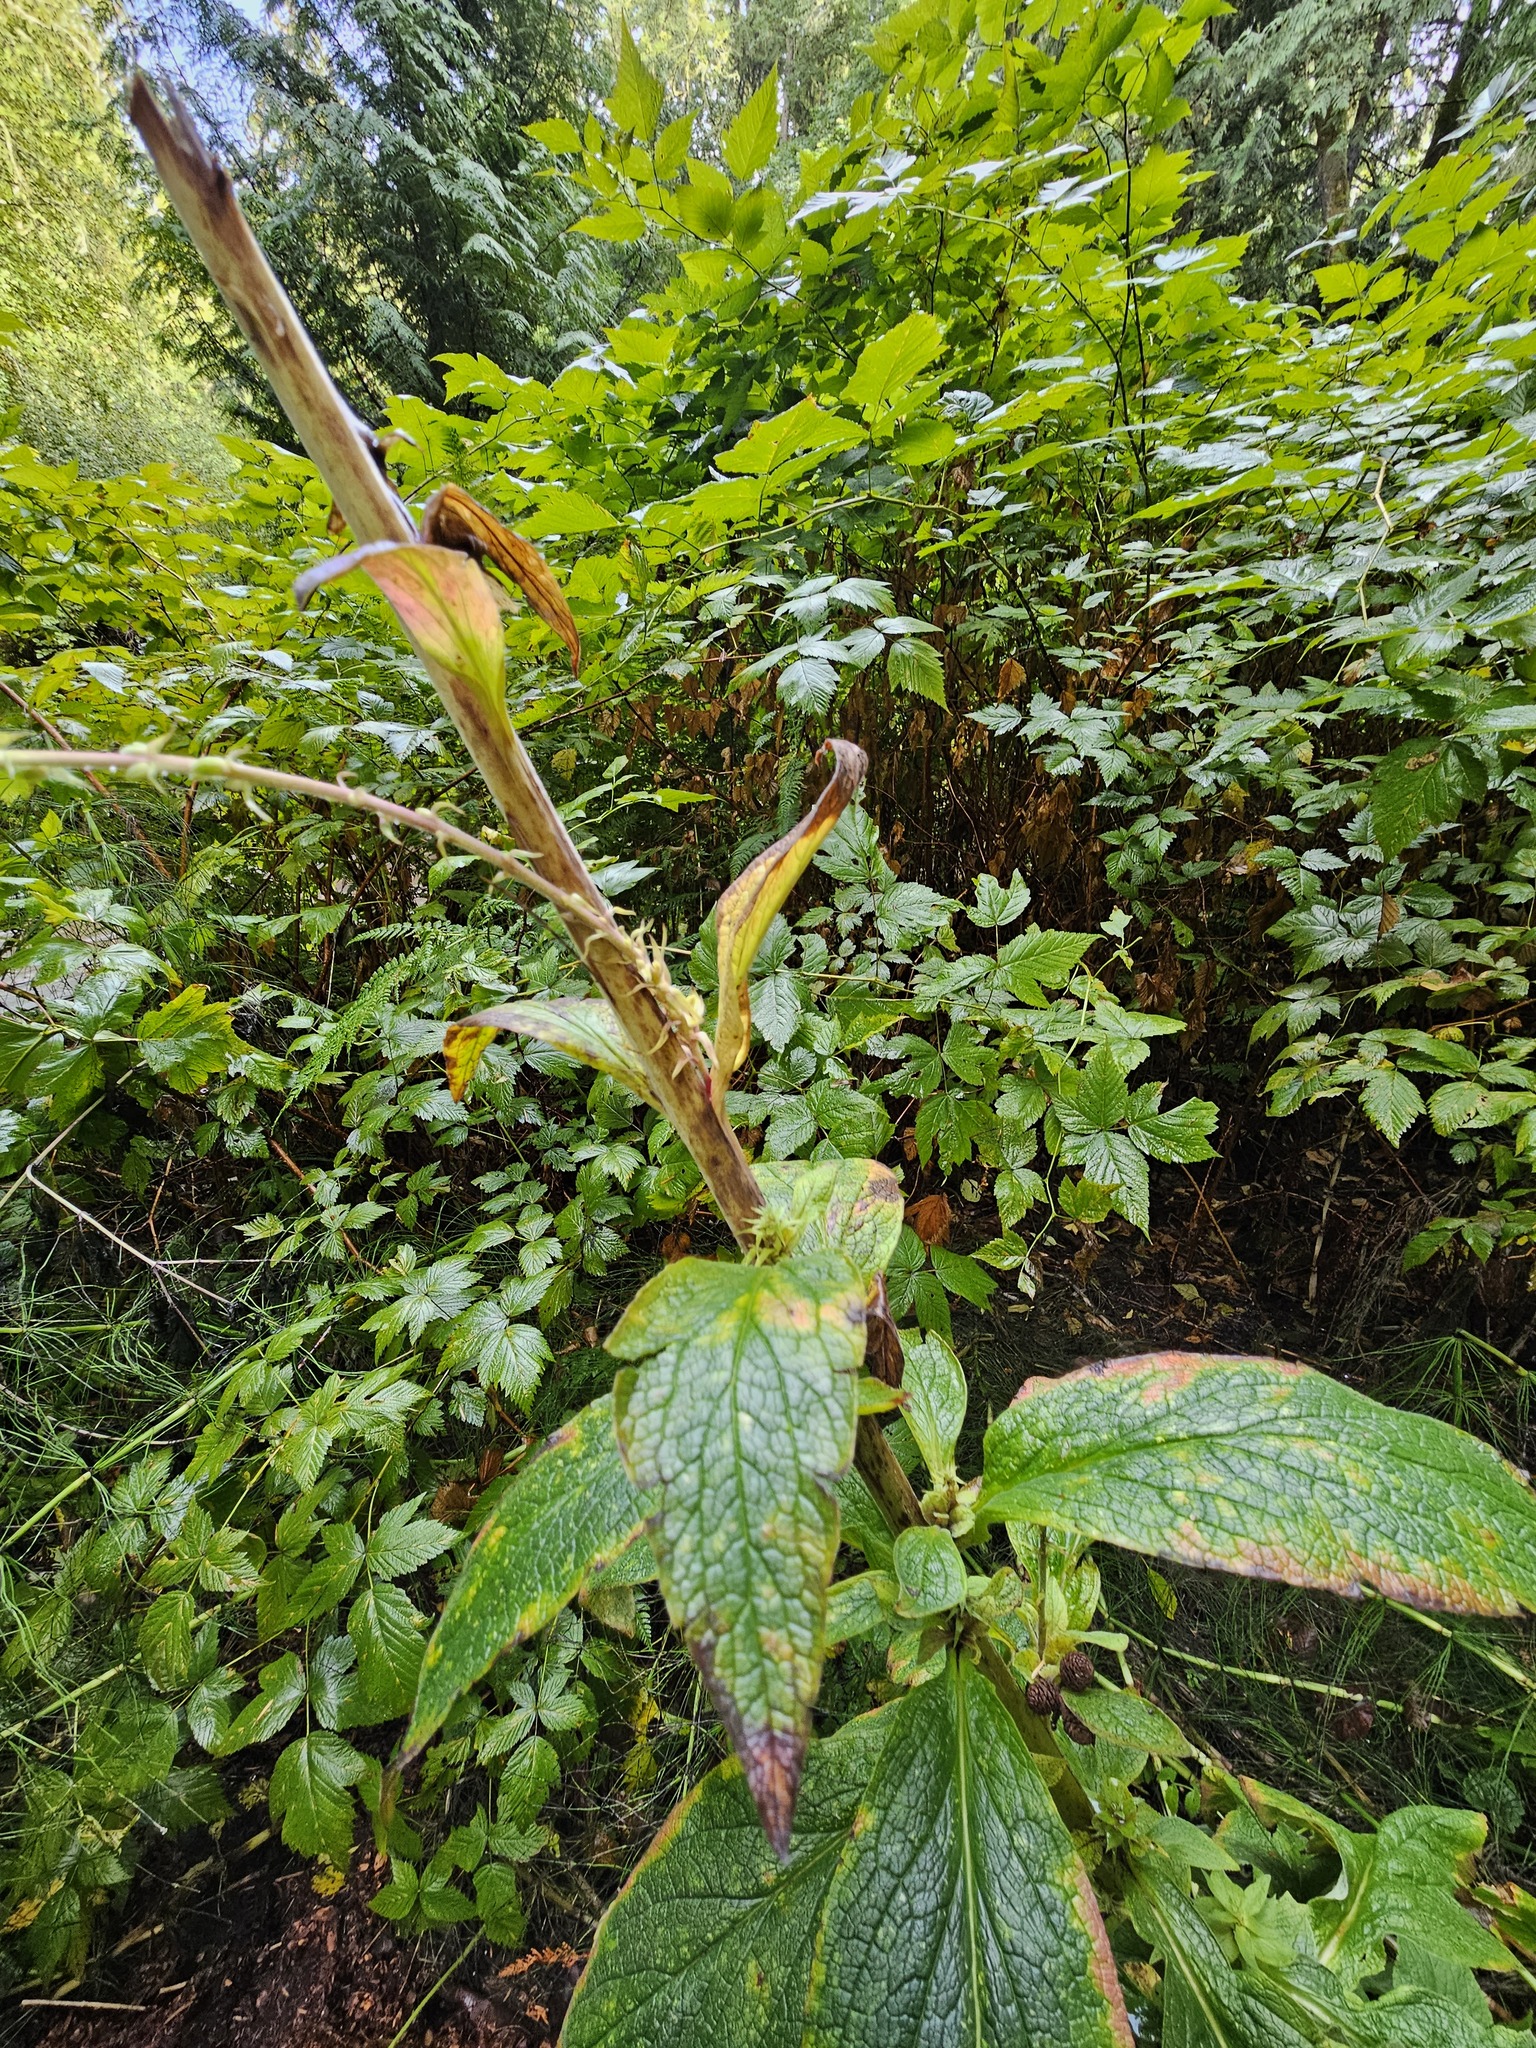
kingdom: Plantae
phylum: Tracheophyta
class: Magnoliopsida
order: Lamiales
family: Plantaginaceae
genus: Digitalis
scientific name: Digitalis purpurea
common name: Foxglove
